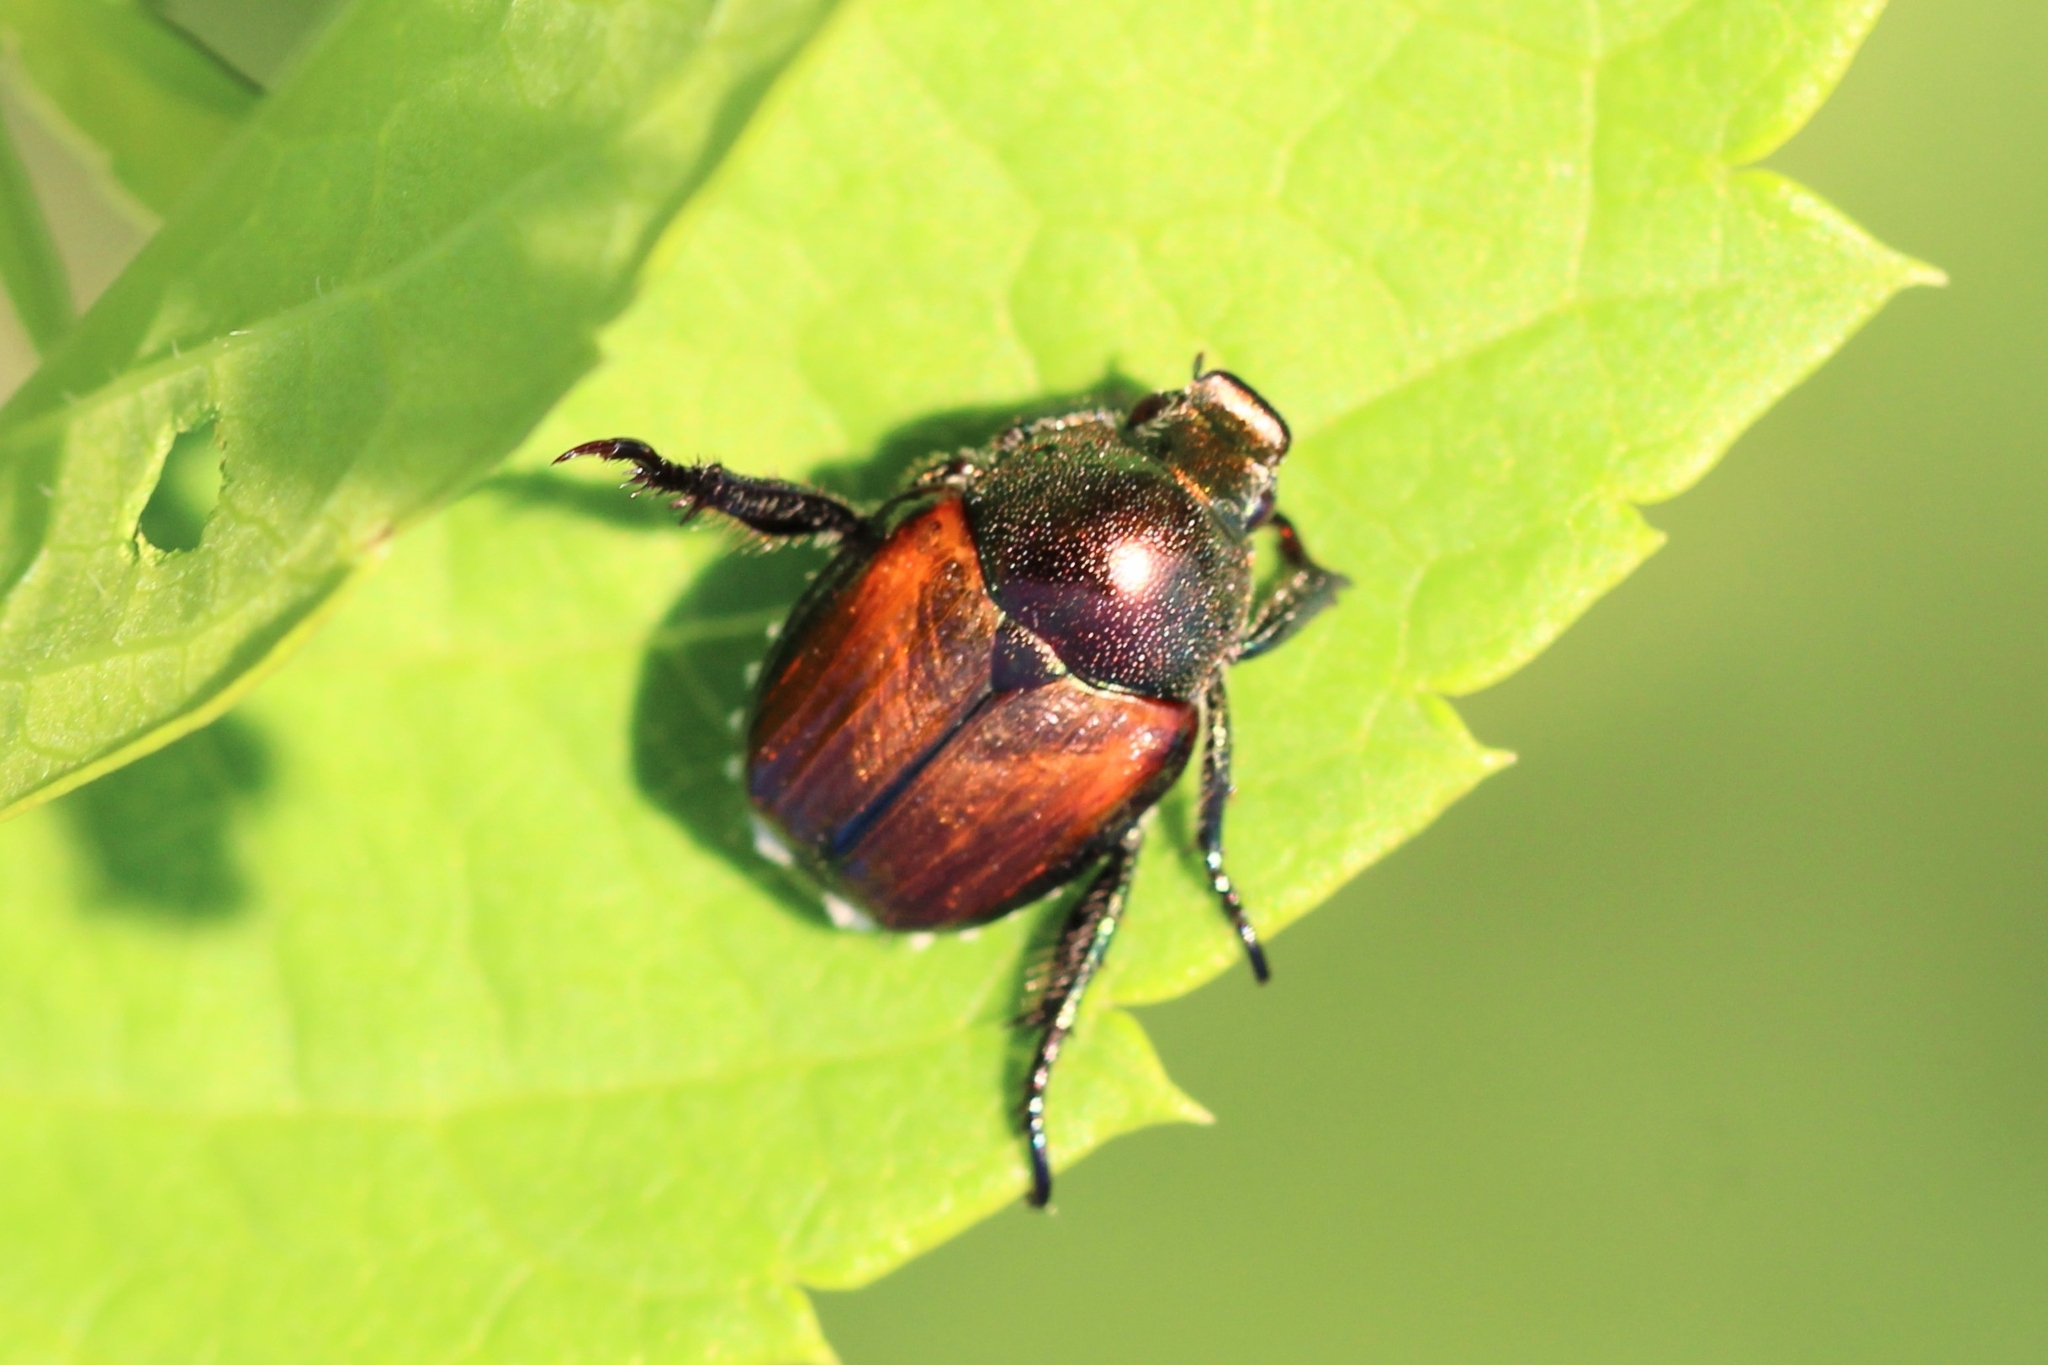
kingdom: Animalia
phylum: Arthropoda
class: Insecta
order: Coleoptera
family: Scarabaeidae
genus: Popillia
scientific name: Popillia japonica
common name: Japanese beetle
